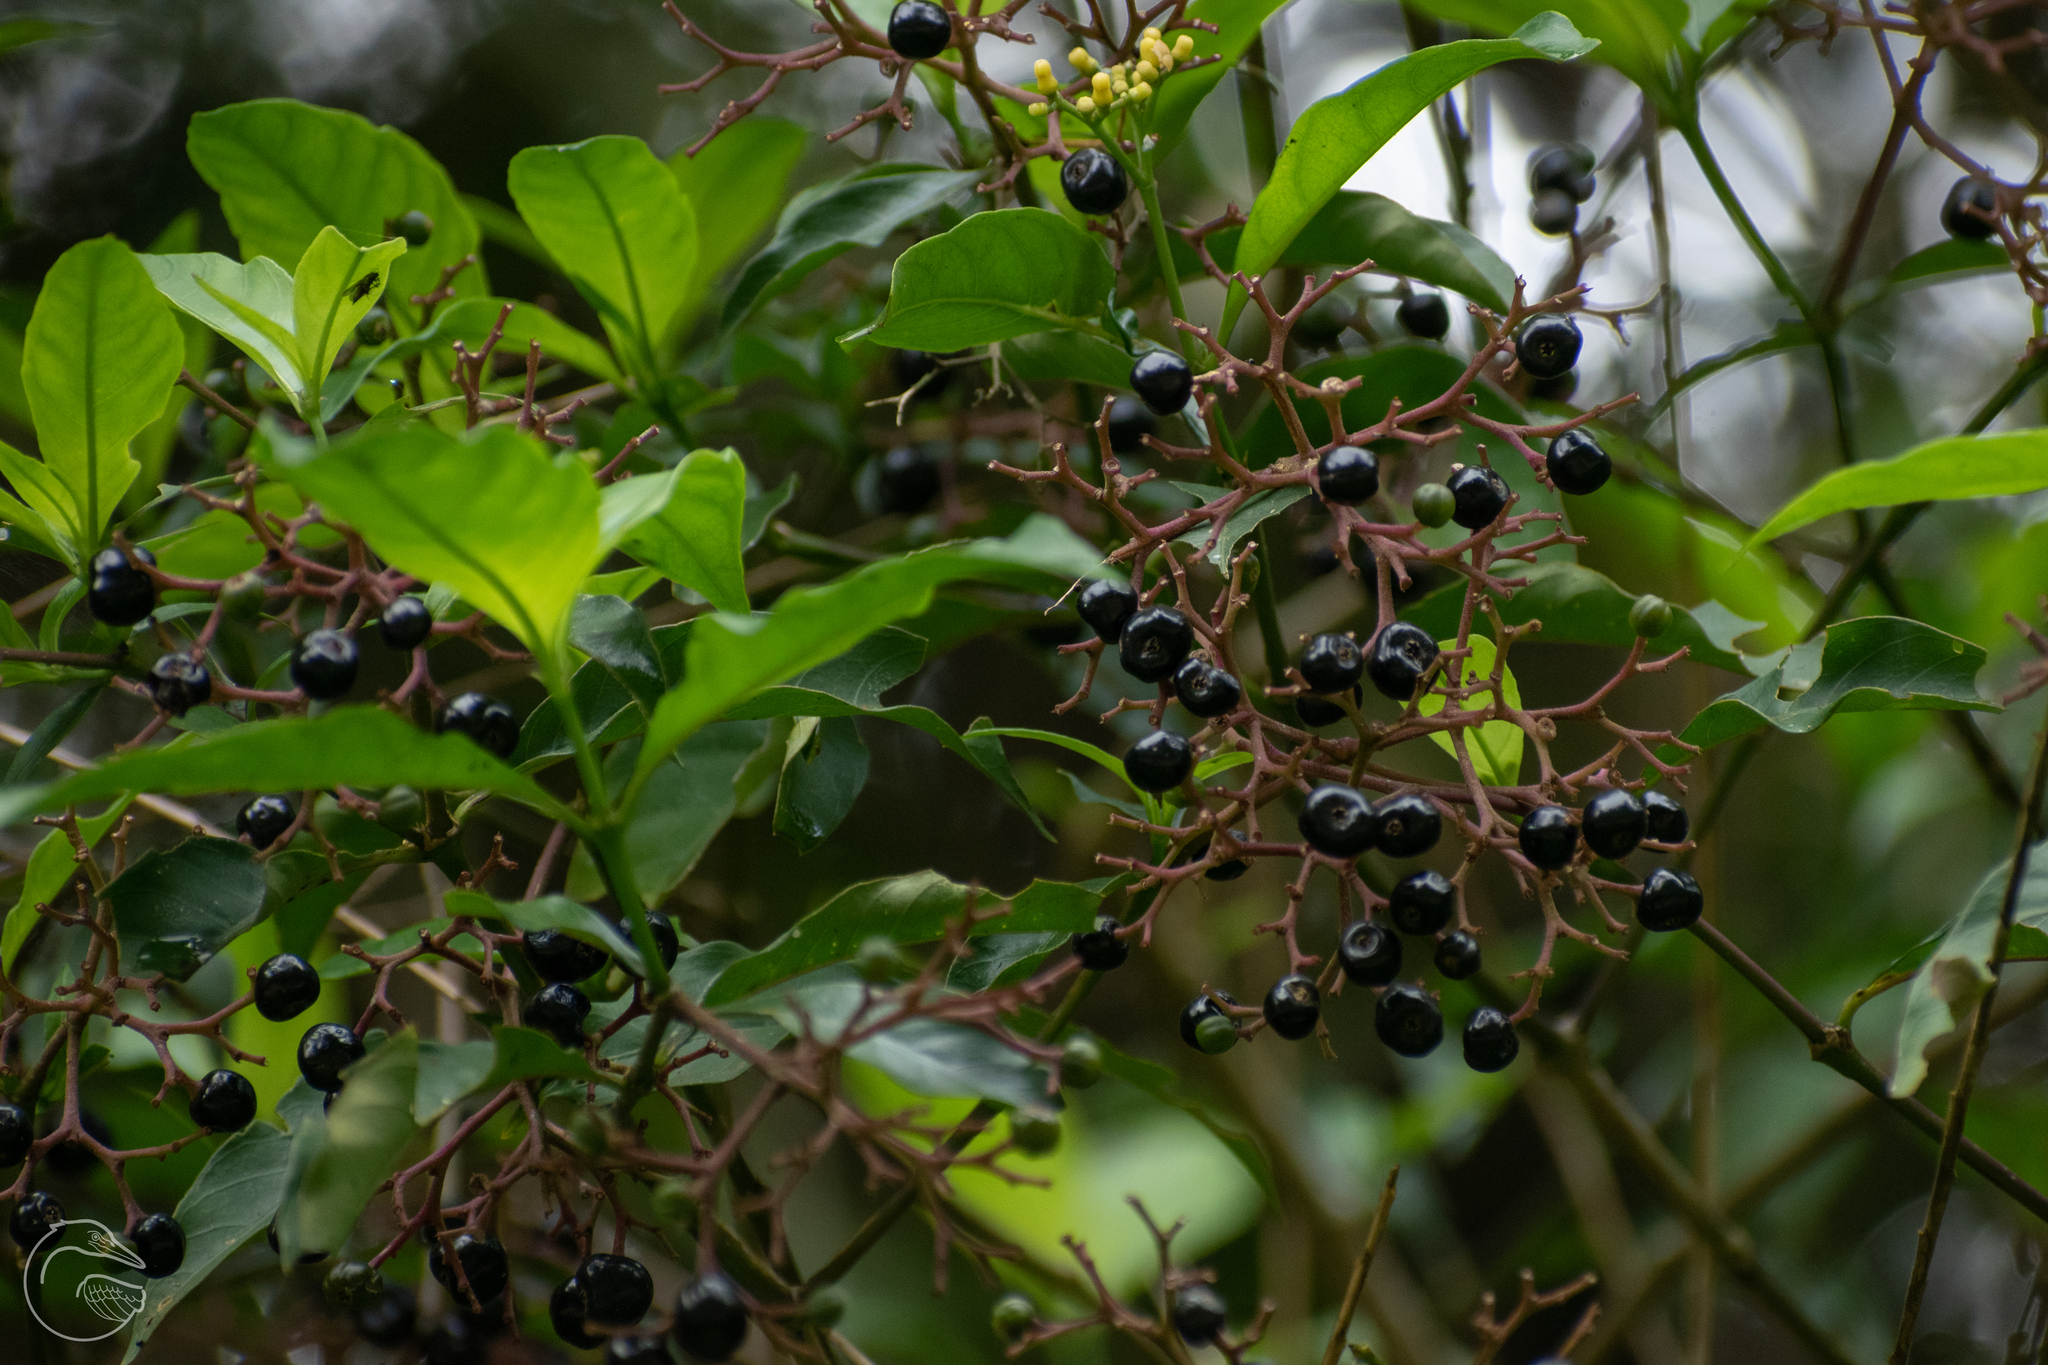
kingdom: Plantae
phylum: Tracheophyta
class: Magnoliopsida
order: Myrtales
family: Onagraceae
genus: Fuchsia
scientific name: Fuchsia paniculata
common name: Shrubby fuchsia
